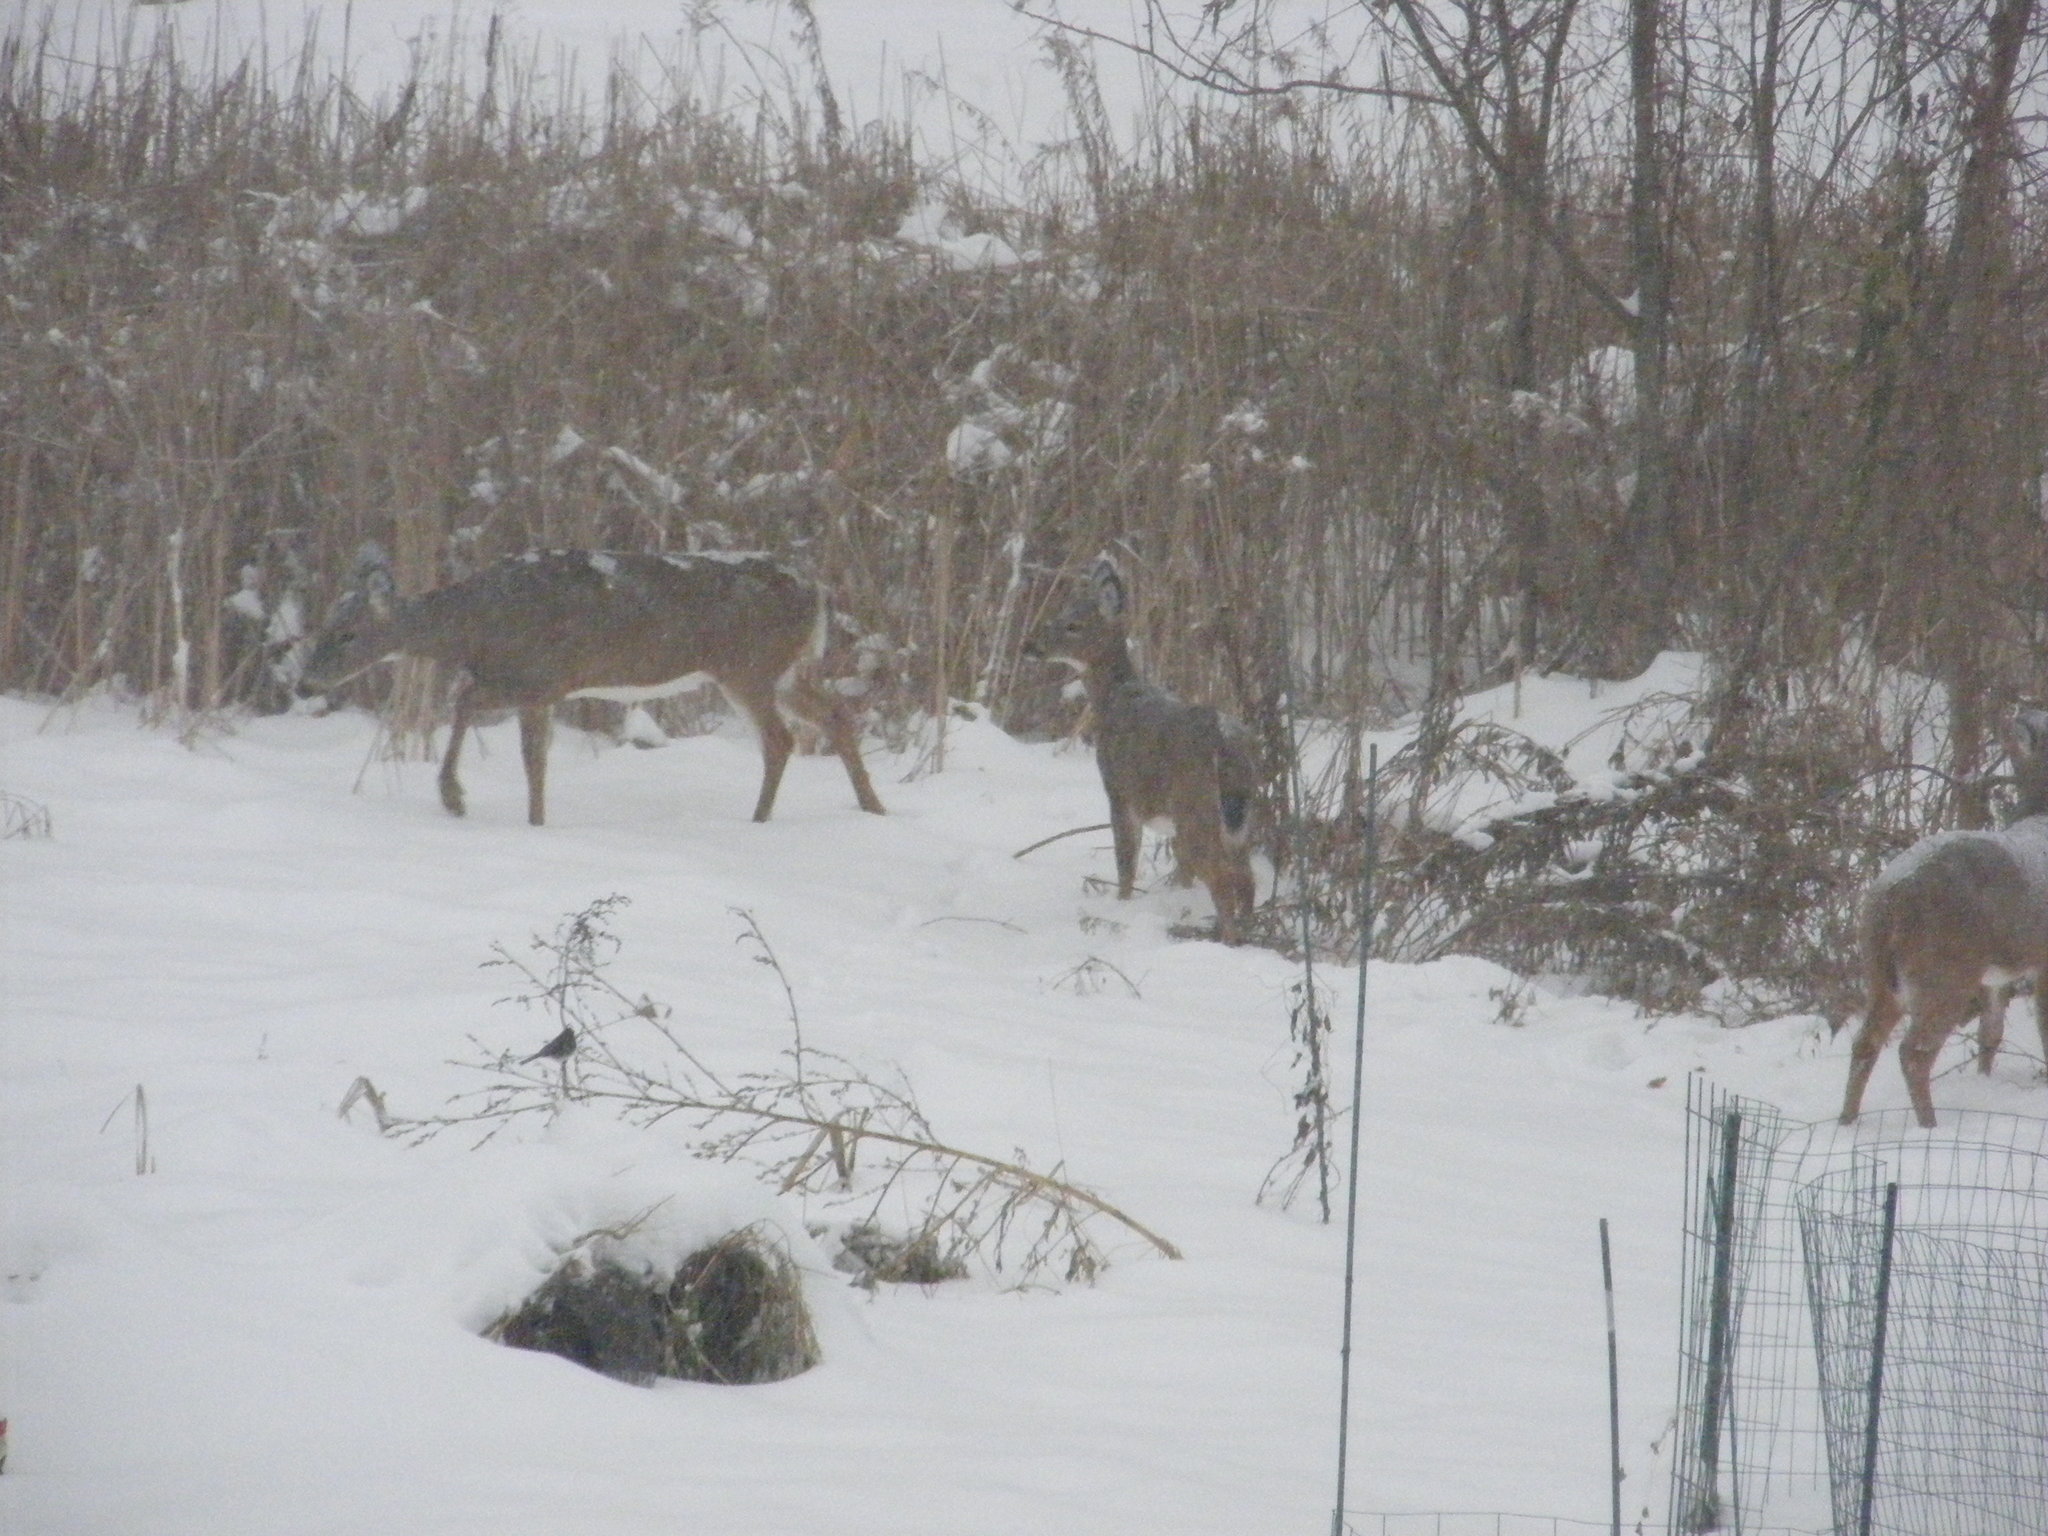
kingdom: Animalia
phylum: Chordata
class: Mammalia
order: Artiodactyla
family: Cervidae
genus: Odocoileus
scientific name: Odocoileus virginianus
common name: White-tailed deer
